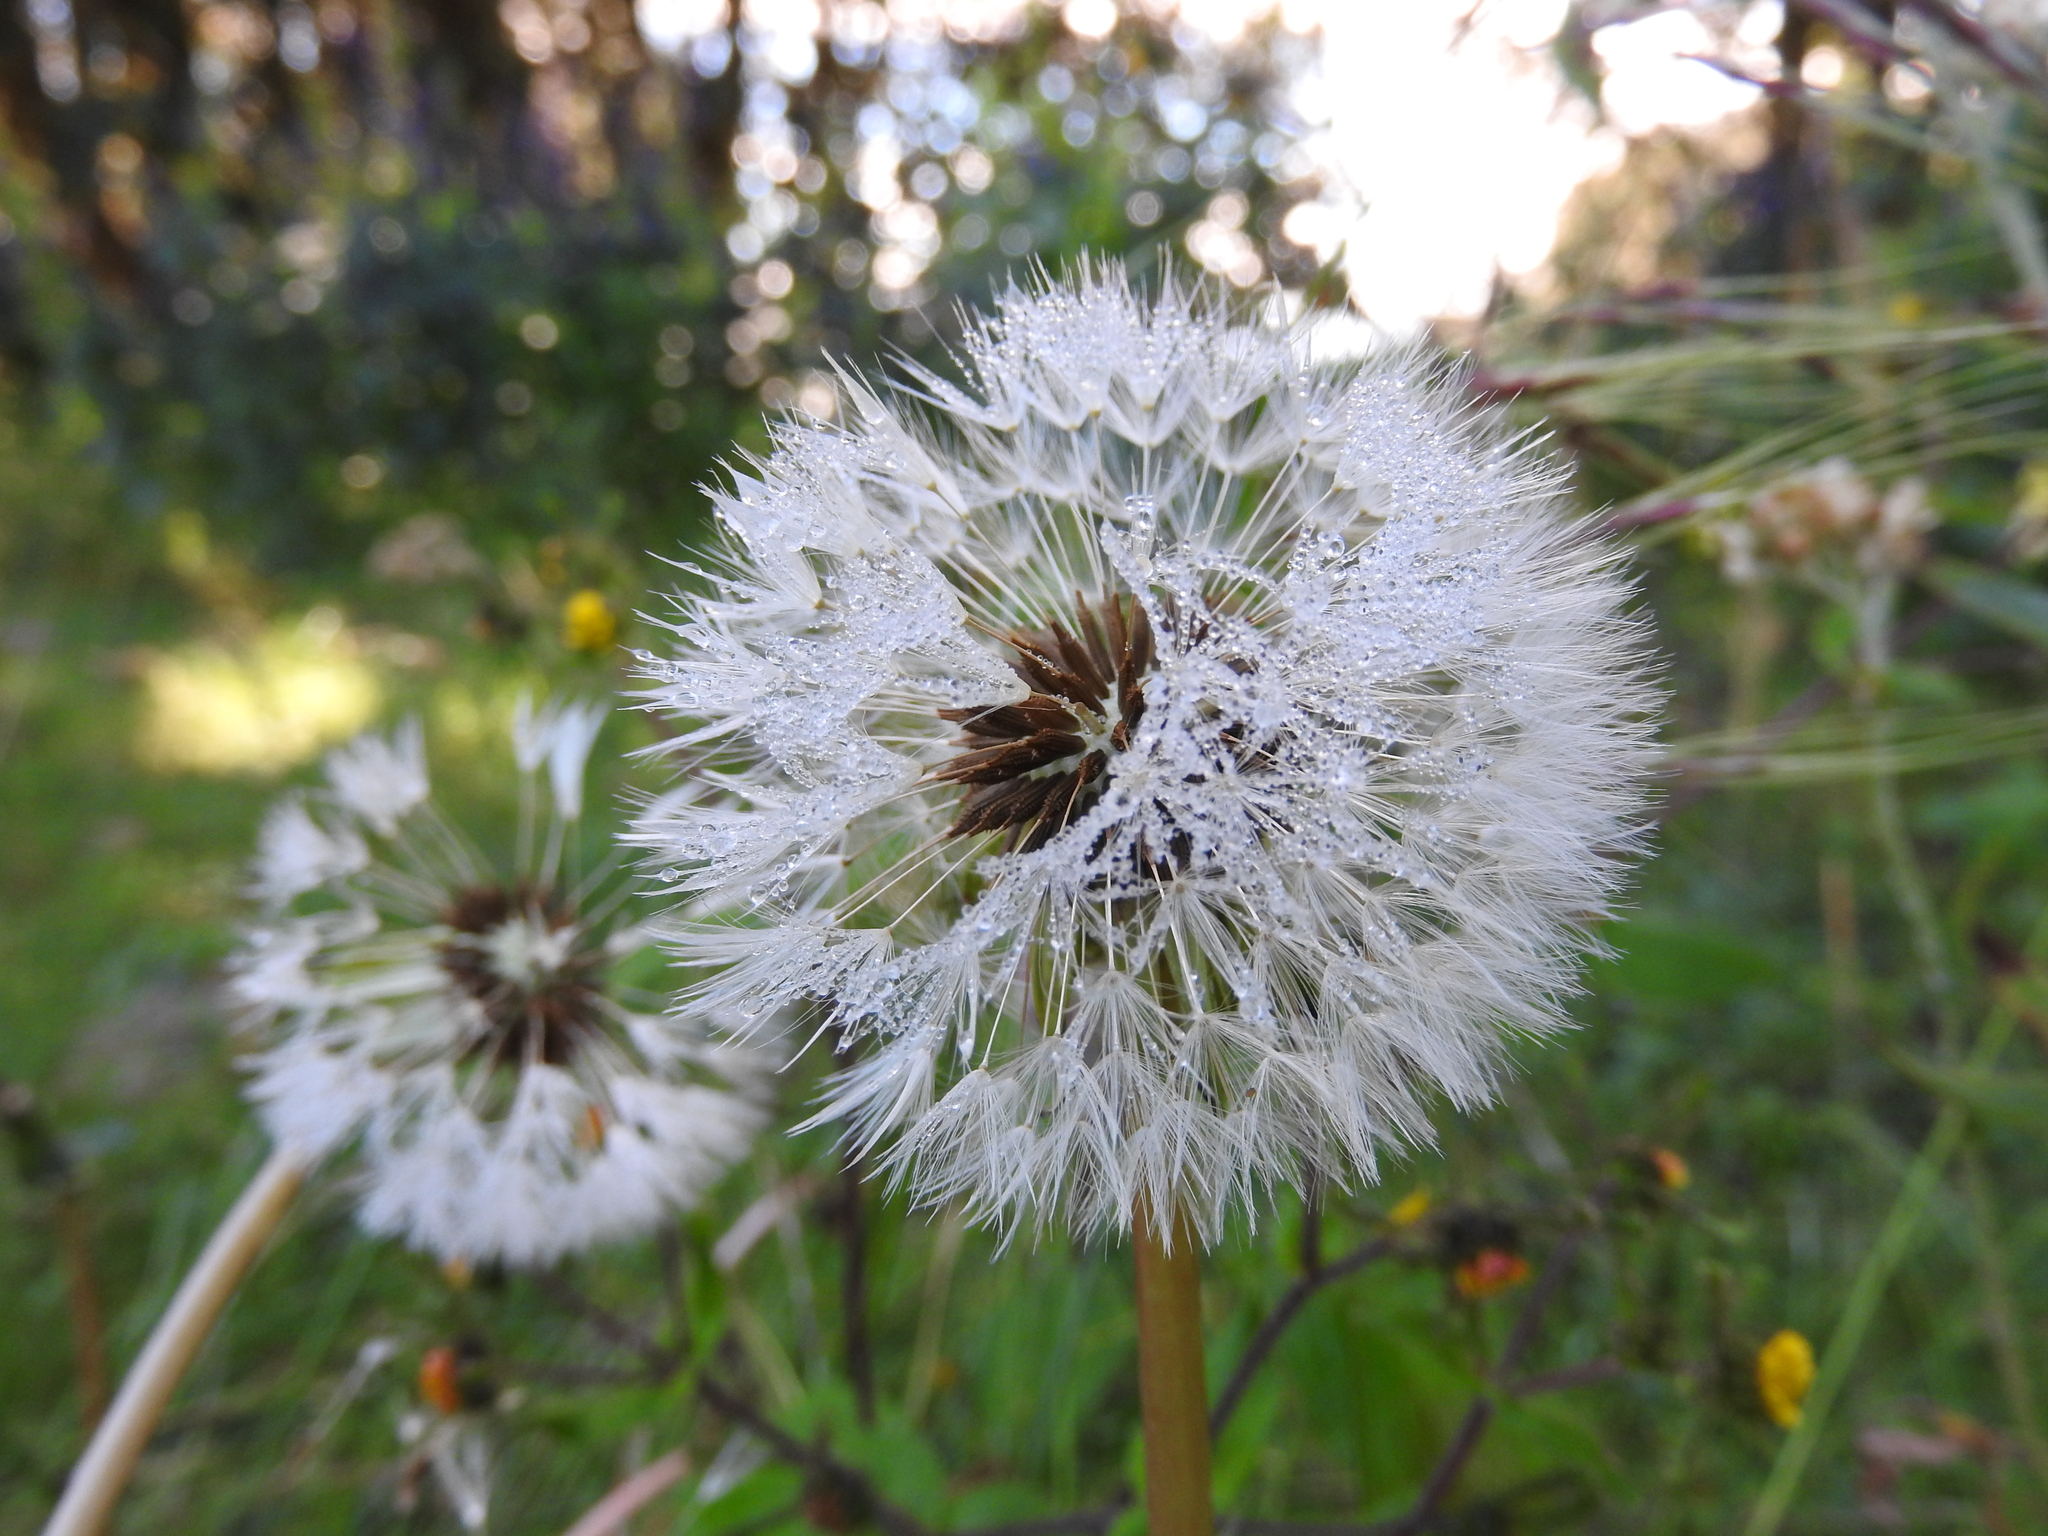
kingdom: Plantae
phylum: Tracheophyta
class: Magnoliopsida
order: Asterales
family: Asteraceae
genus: Taraxacum
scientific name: Taraxacum officinale
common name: Common dandelion
